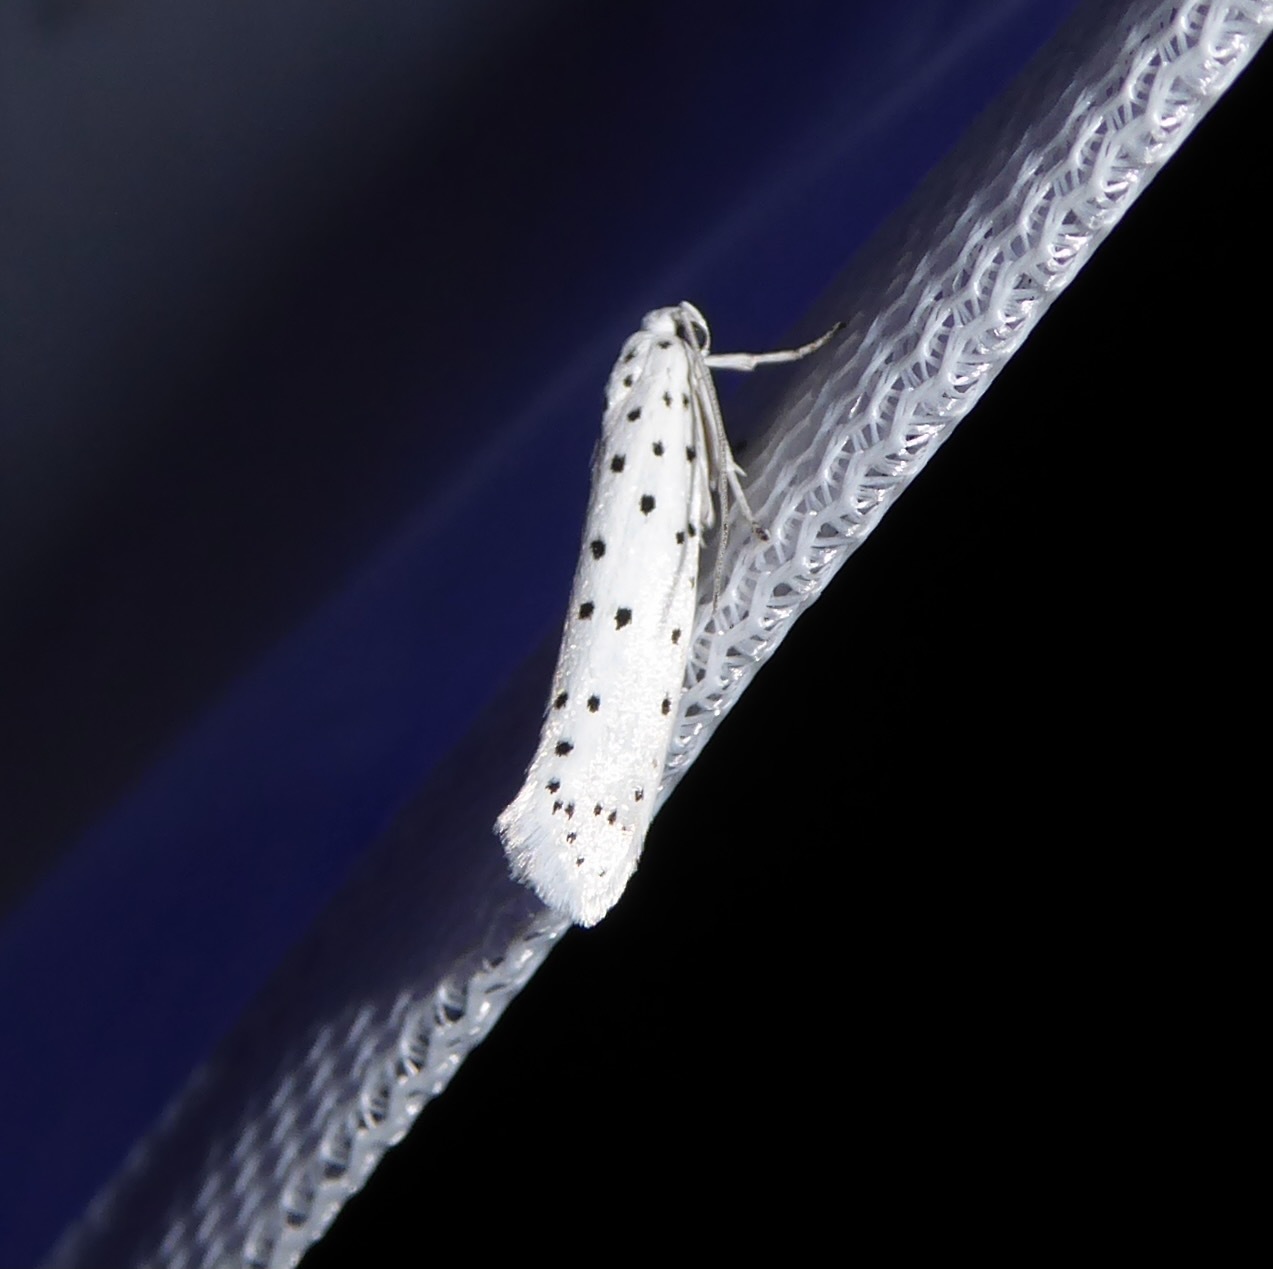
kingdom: Animalia
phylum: Arthropoda
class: Insecta
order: Lepidoptera
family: Yponomeutidae
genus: Yponomeuta
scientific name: Yponomeuta
